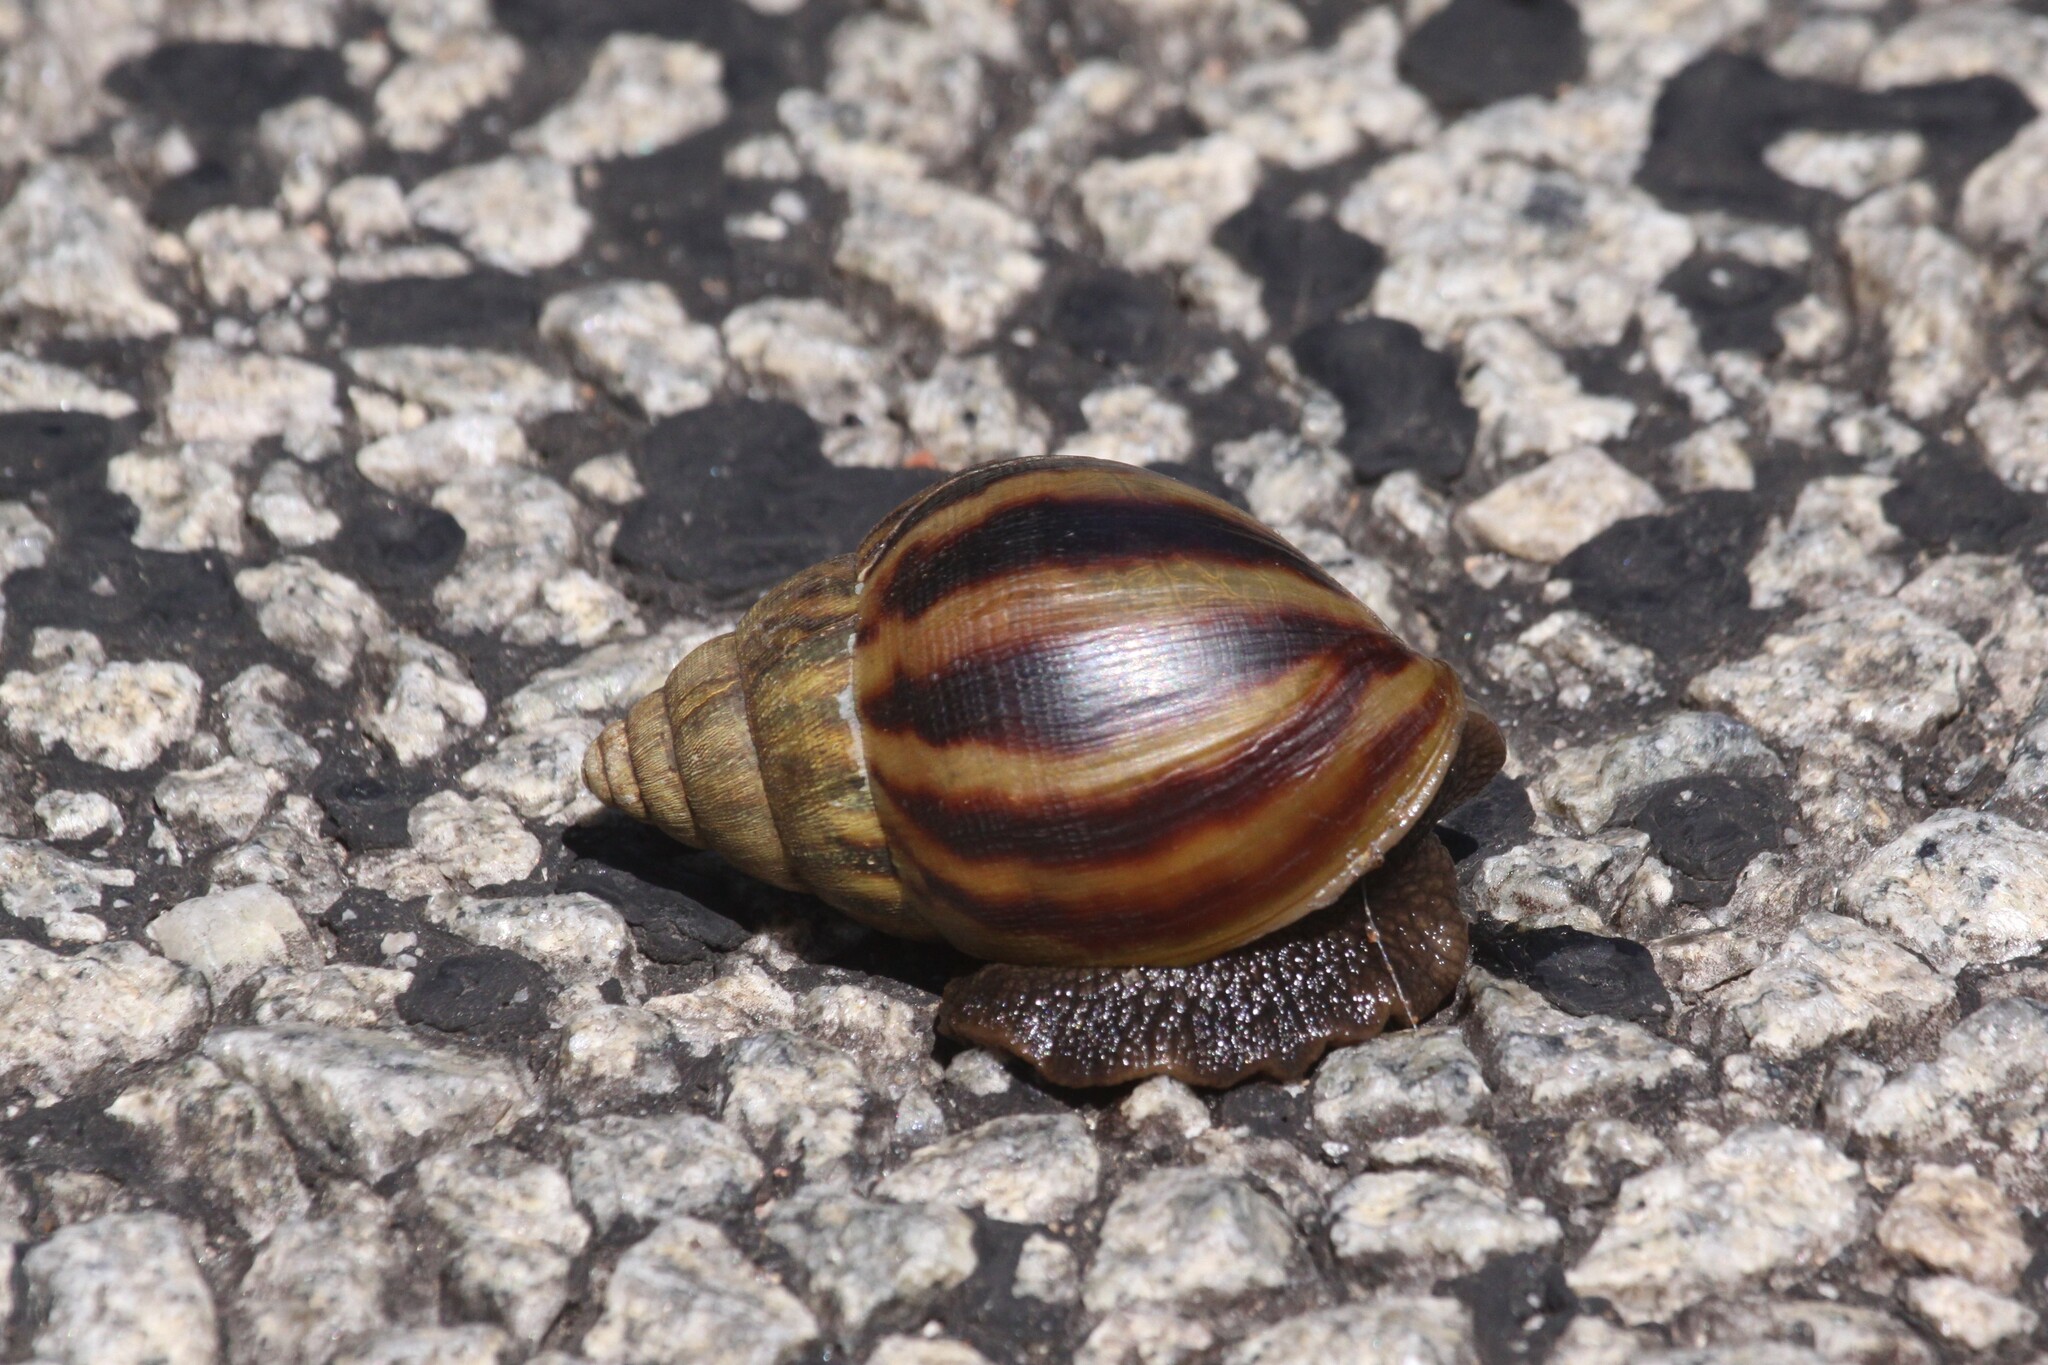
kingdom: Animalia
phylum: Mollusca
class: Gastropoda
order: Stylommatophora
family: Achatinidae
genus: Lissachatina
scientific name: Lissachatina immaculata
